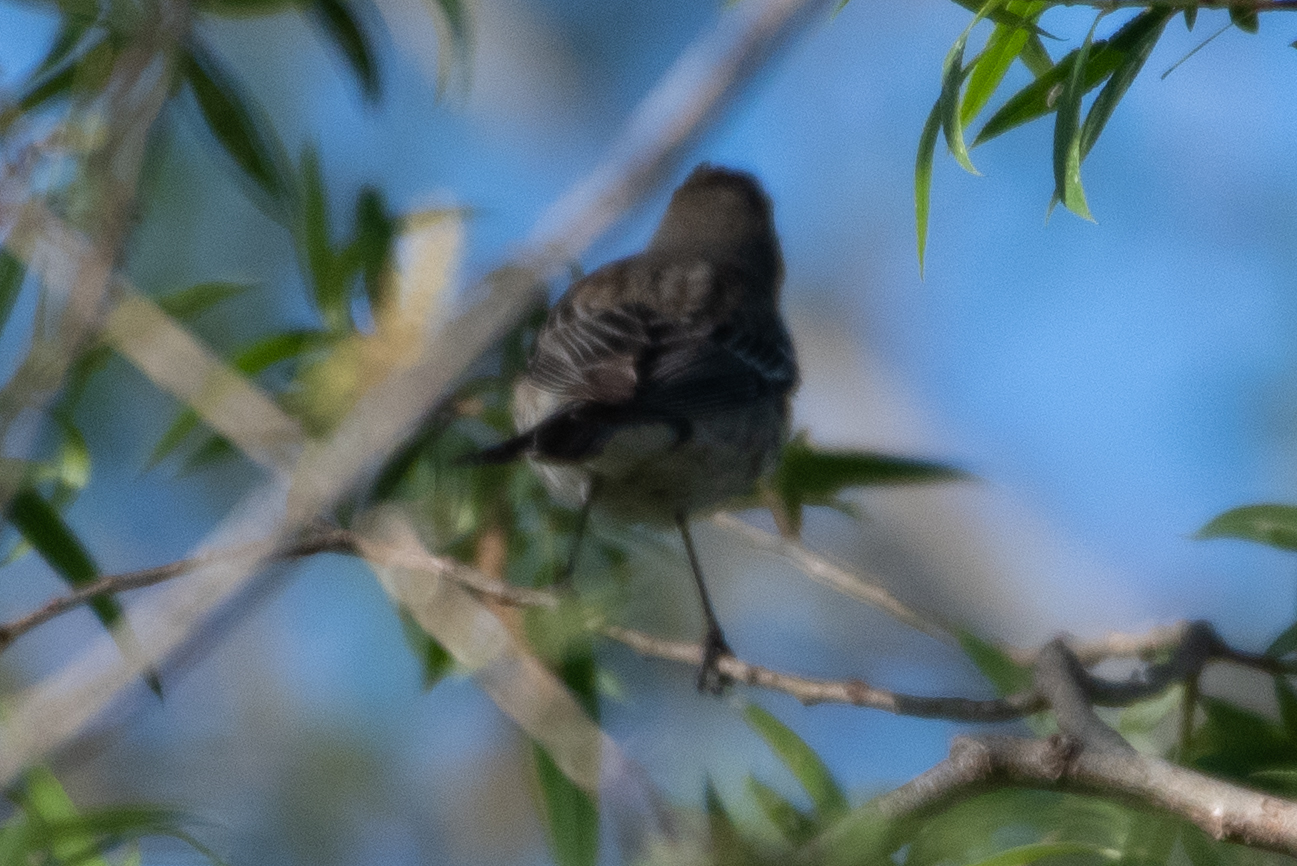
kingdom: Animalia
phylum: Chordata
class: Aves
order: Passeriformes
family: Parulidae
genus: Setophaga
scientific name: Setophaga coronata
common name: Myrtle warbler
